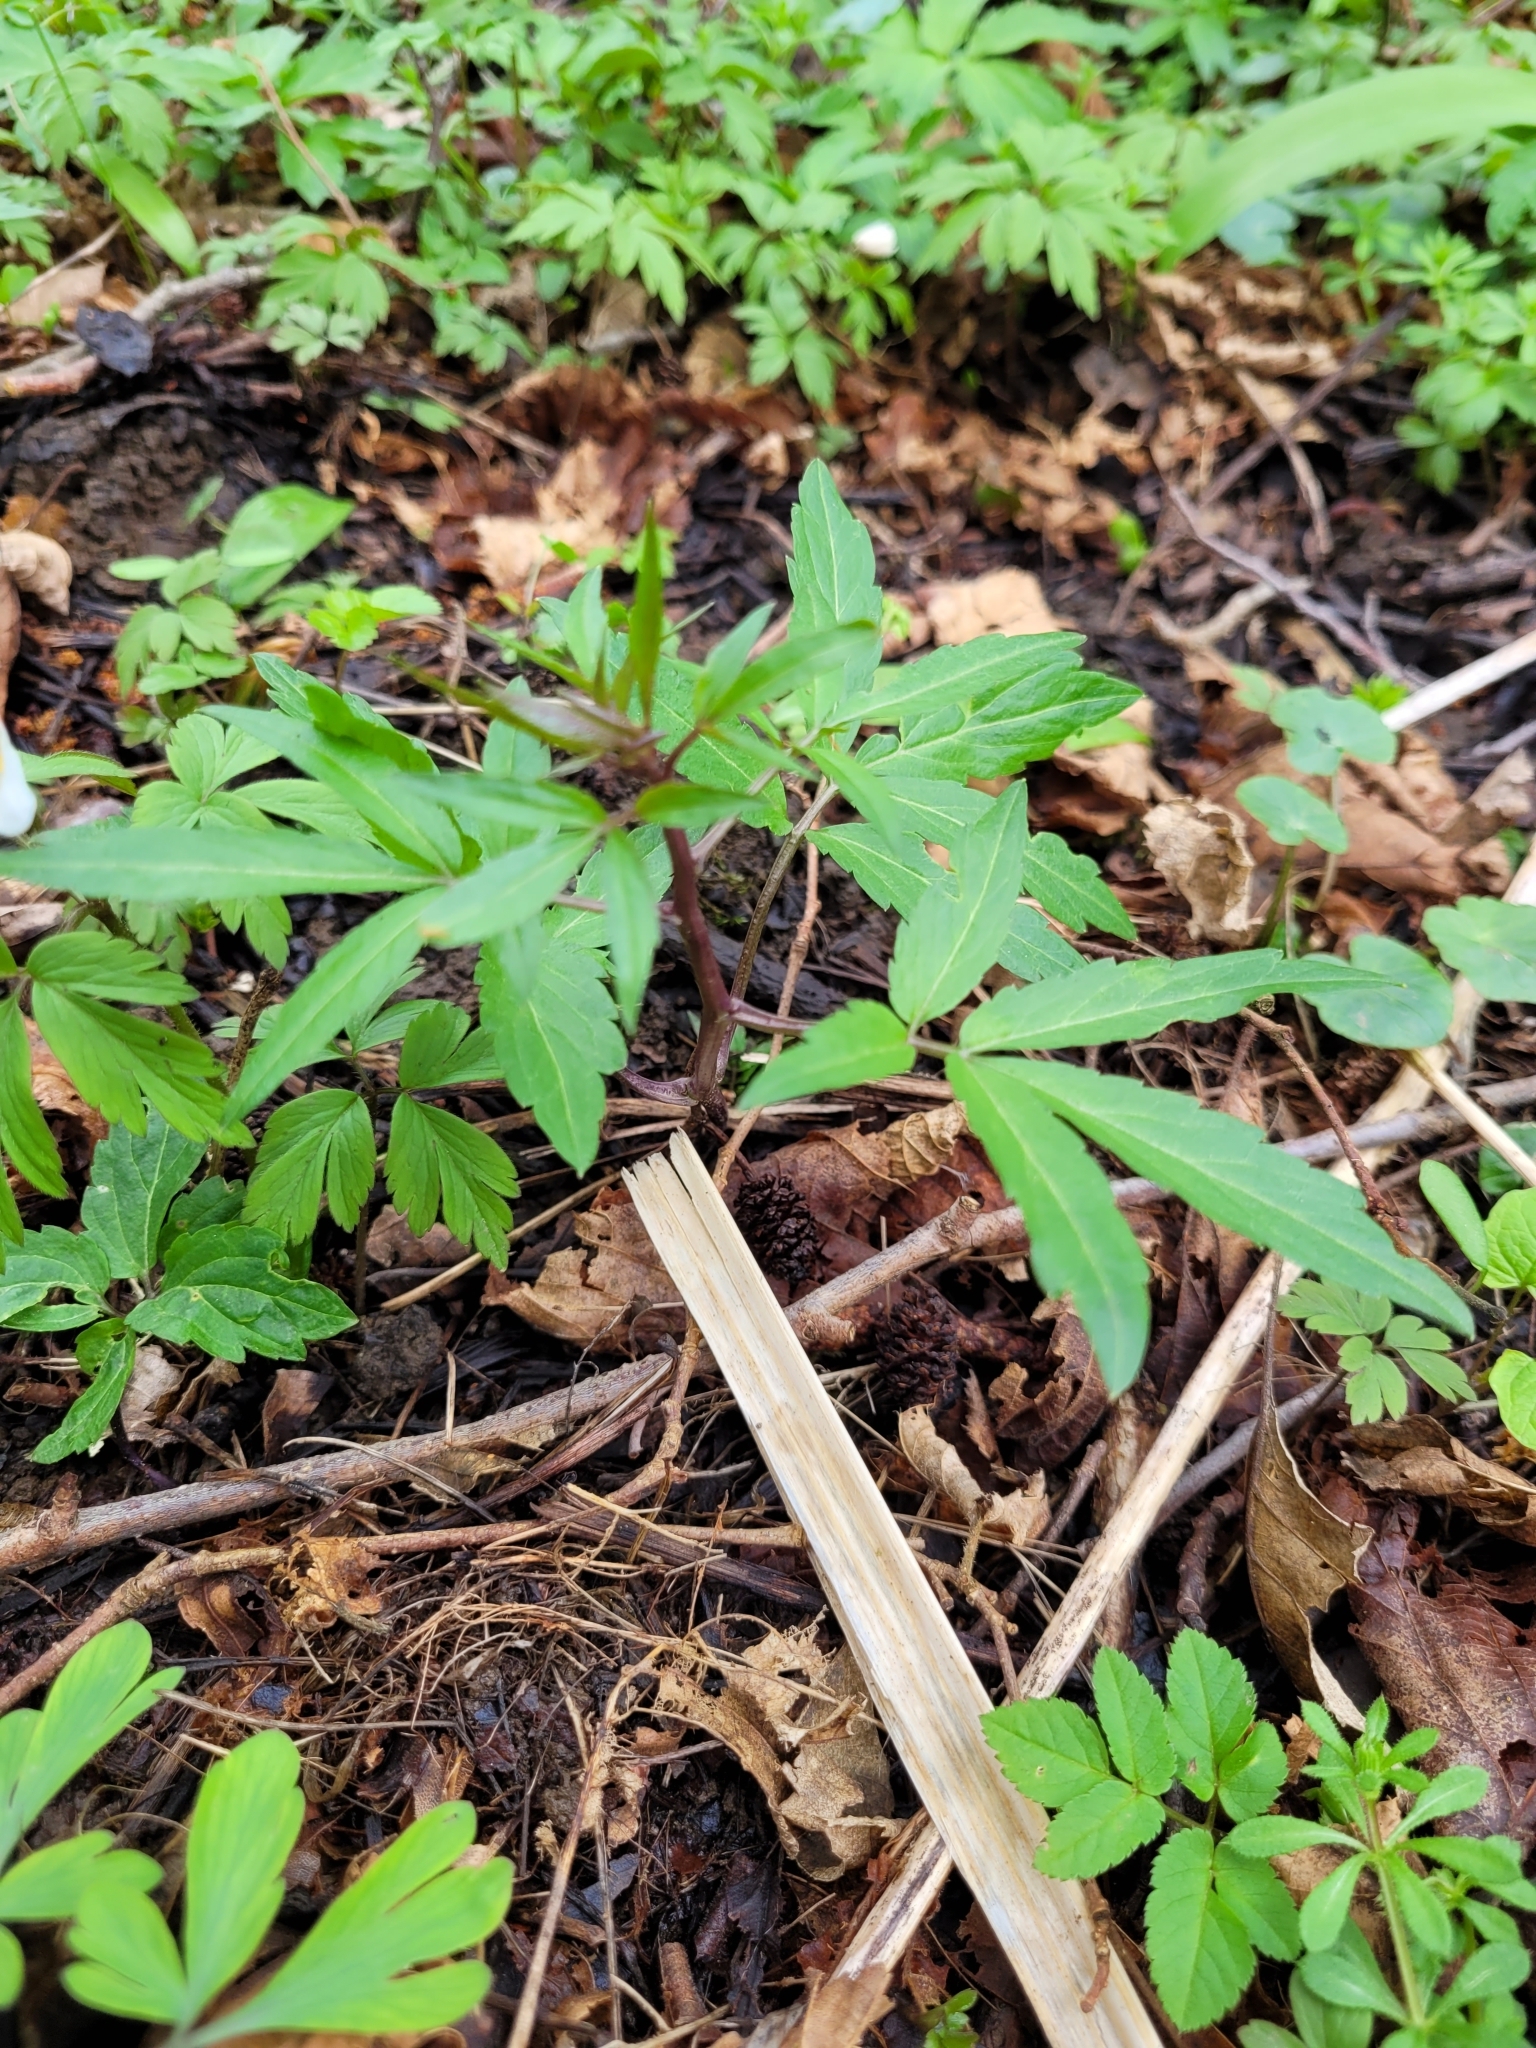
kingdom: Plantae
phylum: Tracheophyta
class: Magnoliopsida
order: Brassicales
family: Brassicaceae
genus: Cardamine
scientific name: Cardamine bulbifera
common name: Coralroot bittercress
